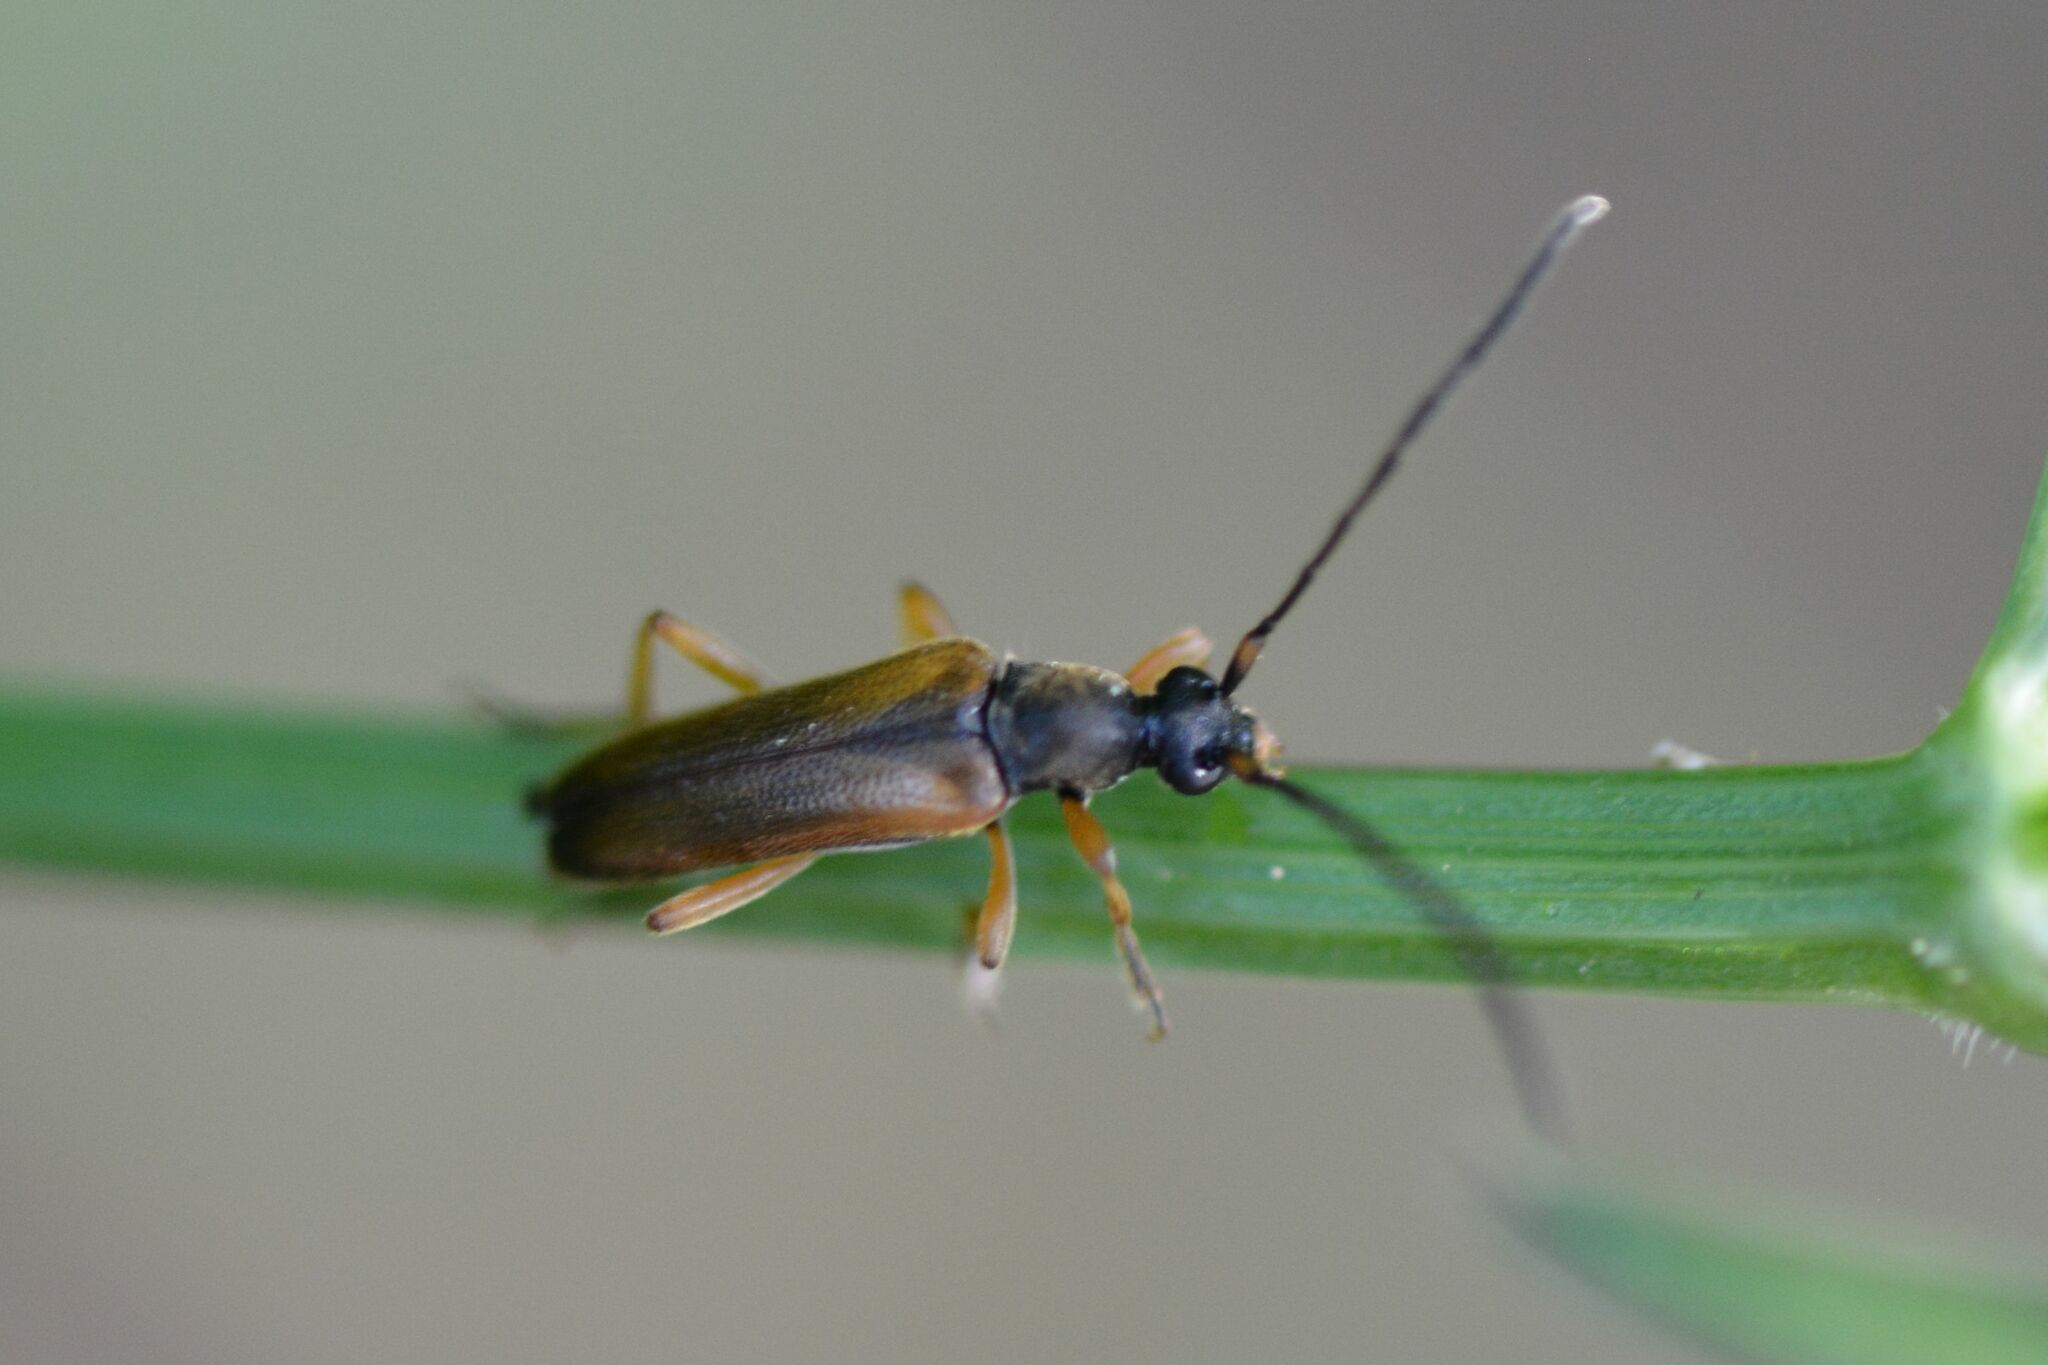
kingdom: Animalia
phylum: Arthropoda
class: Insecta
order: Coleoptera
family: Cerambycidae
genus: Alosterna
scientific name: Alosterna tabacicolor
